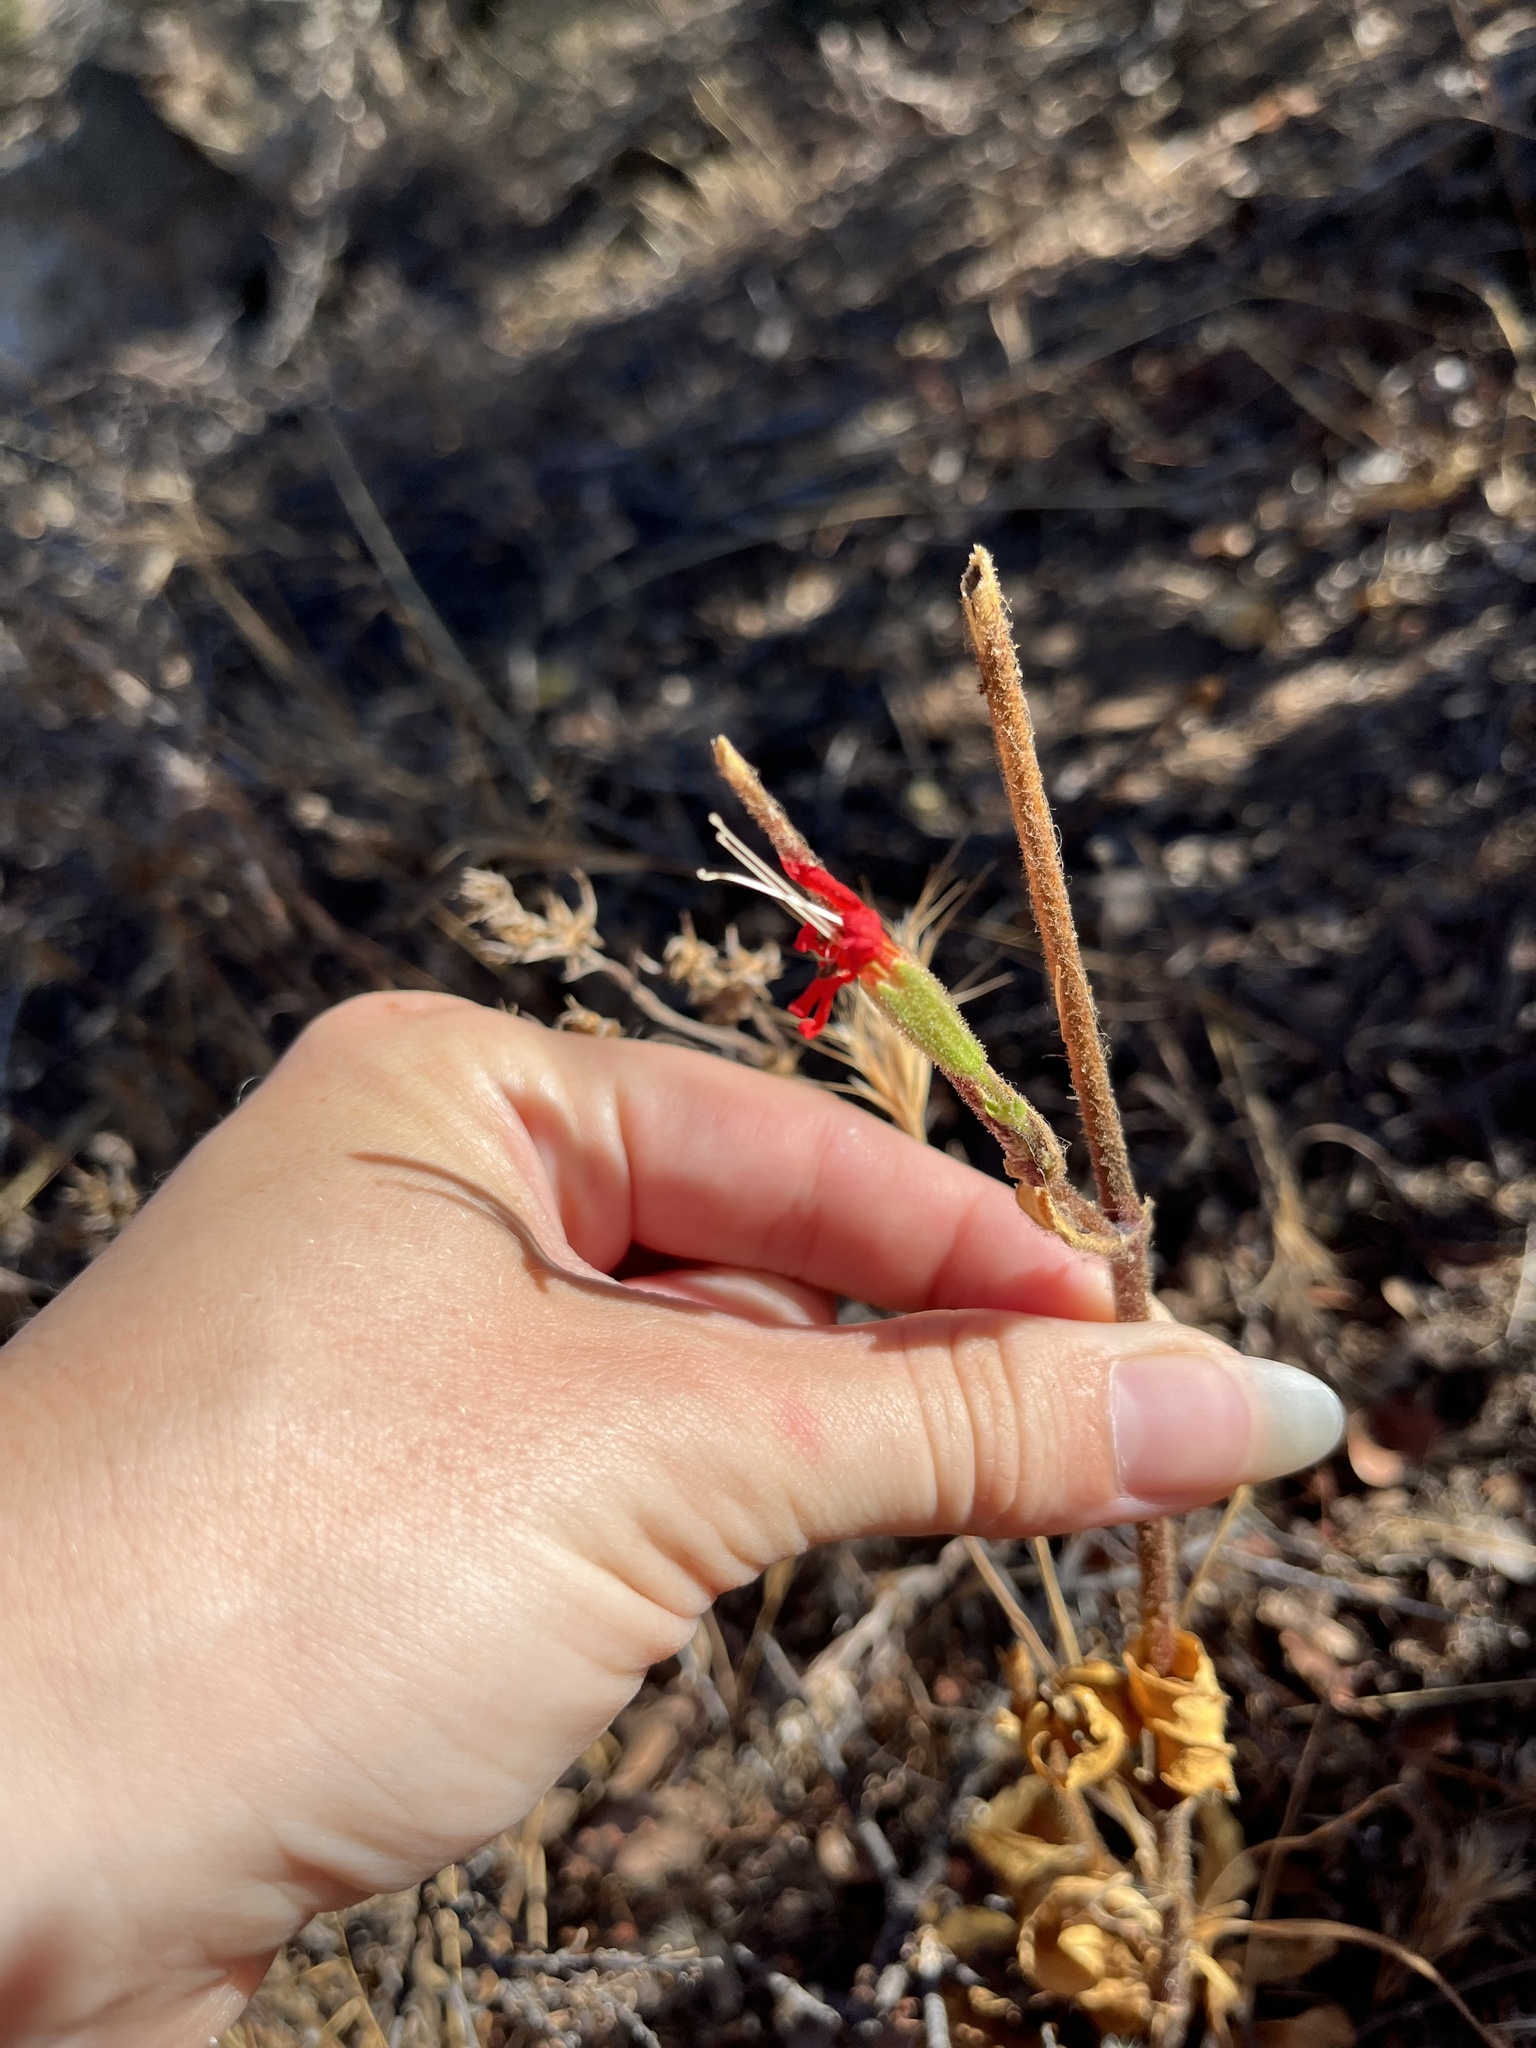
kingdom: Plantae
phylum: Tracheophyta
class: Magnoliopsida
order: Caryophyllales
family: Caryophyllaceae
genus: Silene
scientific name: Silene laciniata
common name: Indian-pink
